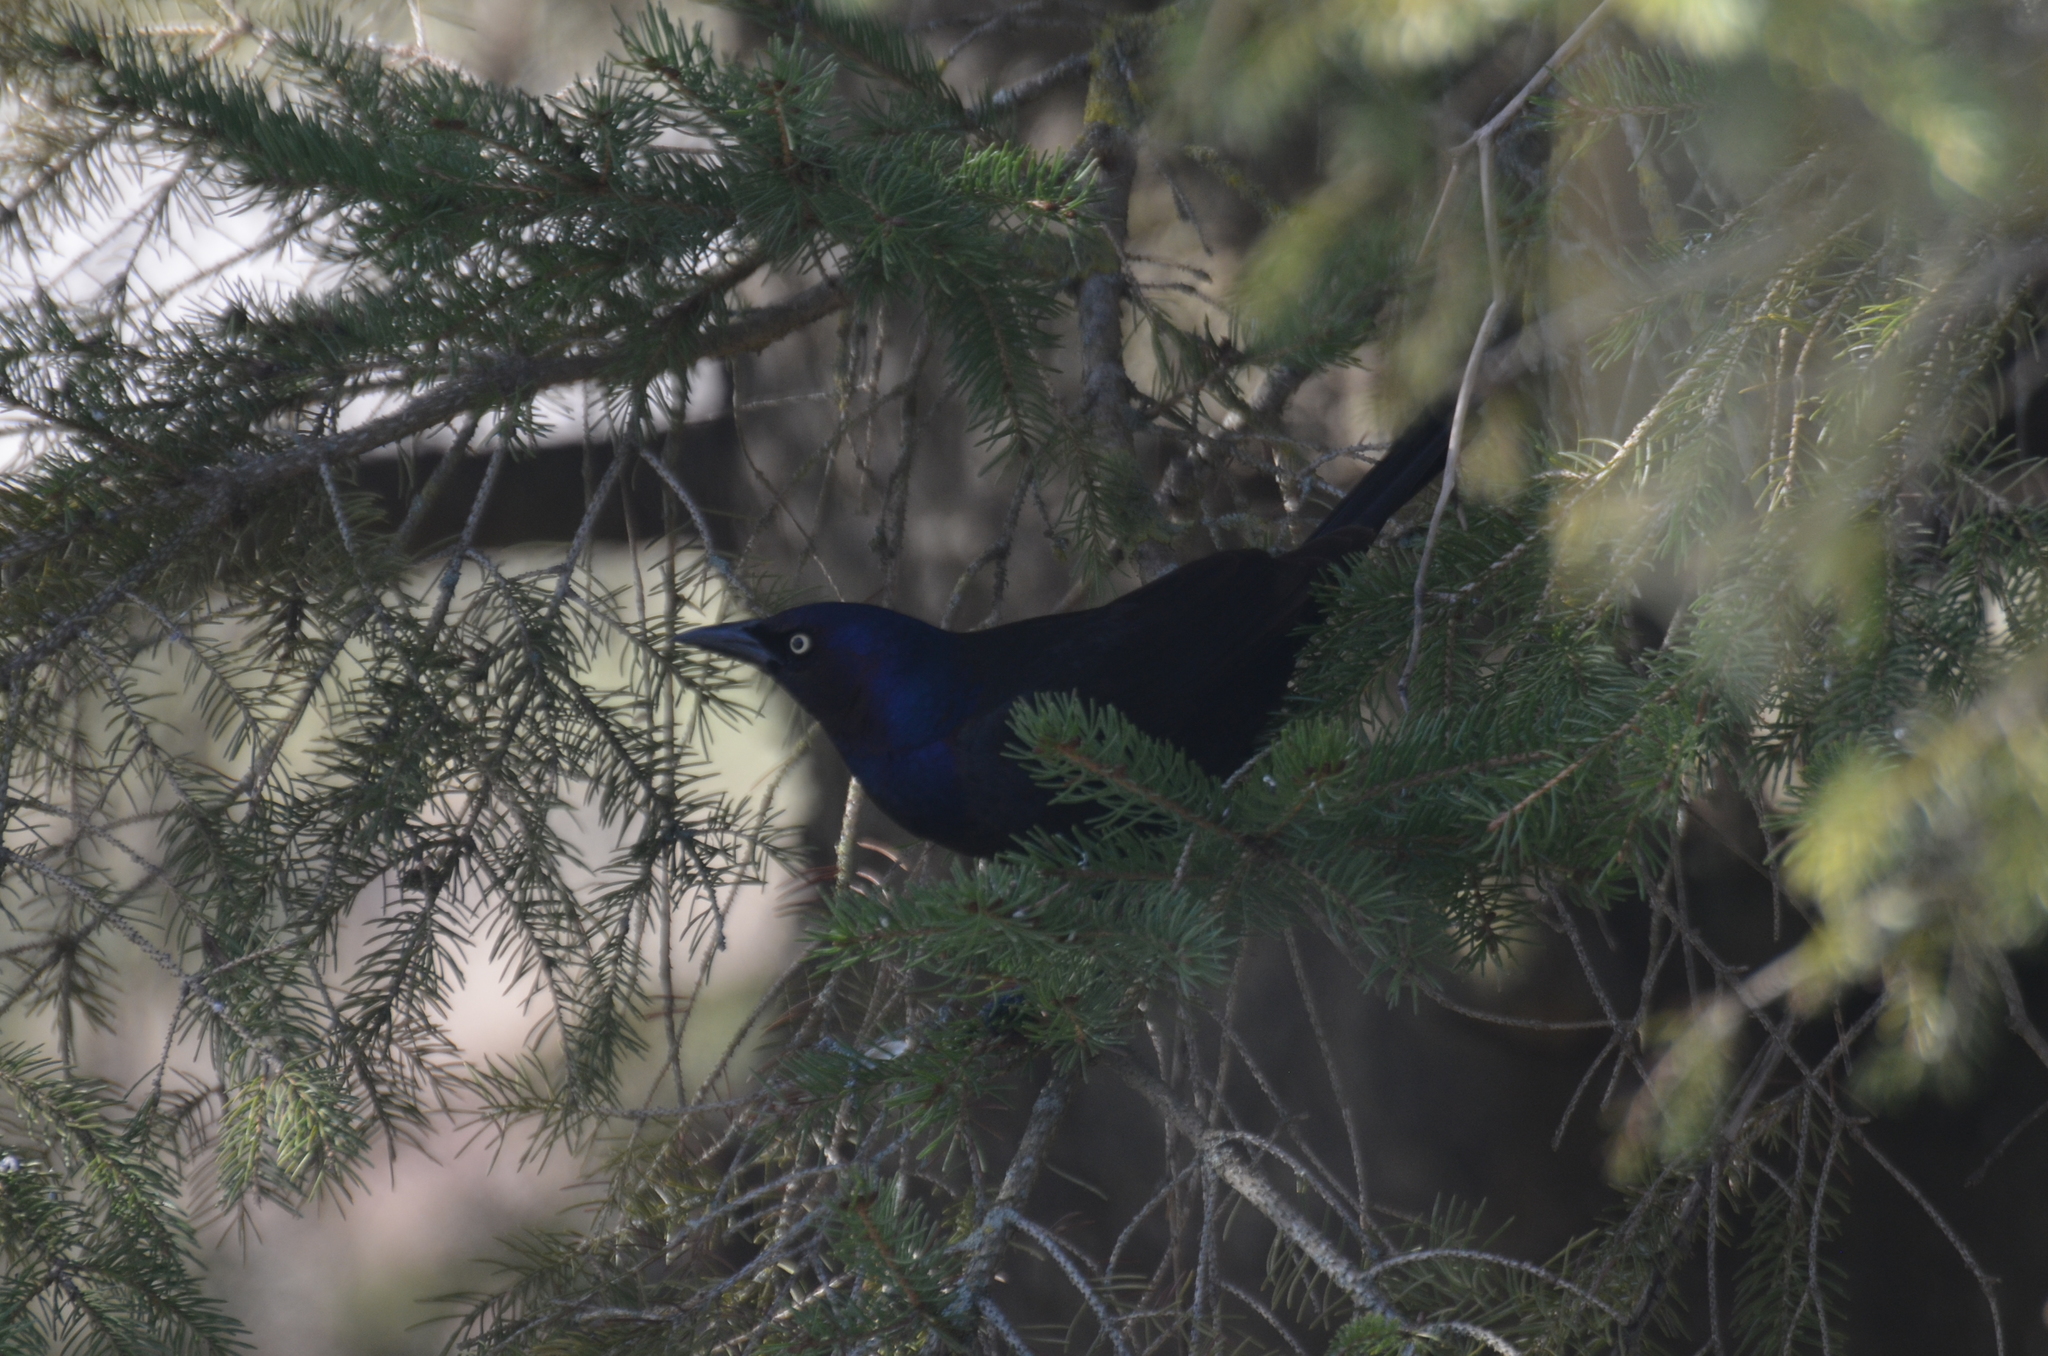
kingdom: Animalia
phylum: Chordata
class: Aves
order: Passeriformes
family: Icteridae
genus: Quiscalus
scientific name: Quiscalus quiscula
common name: Common grackle
